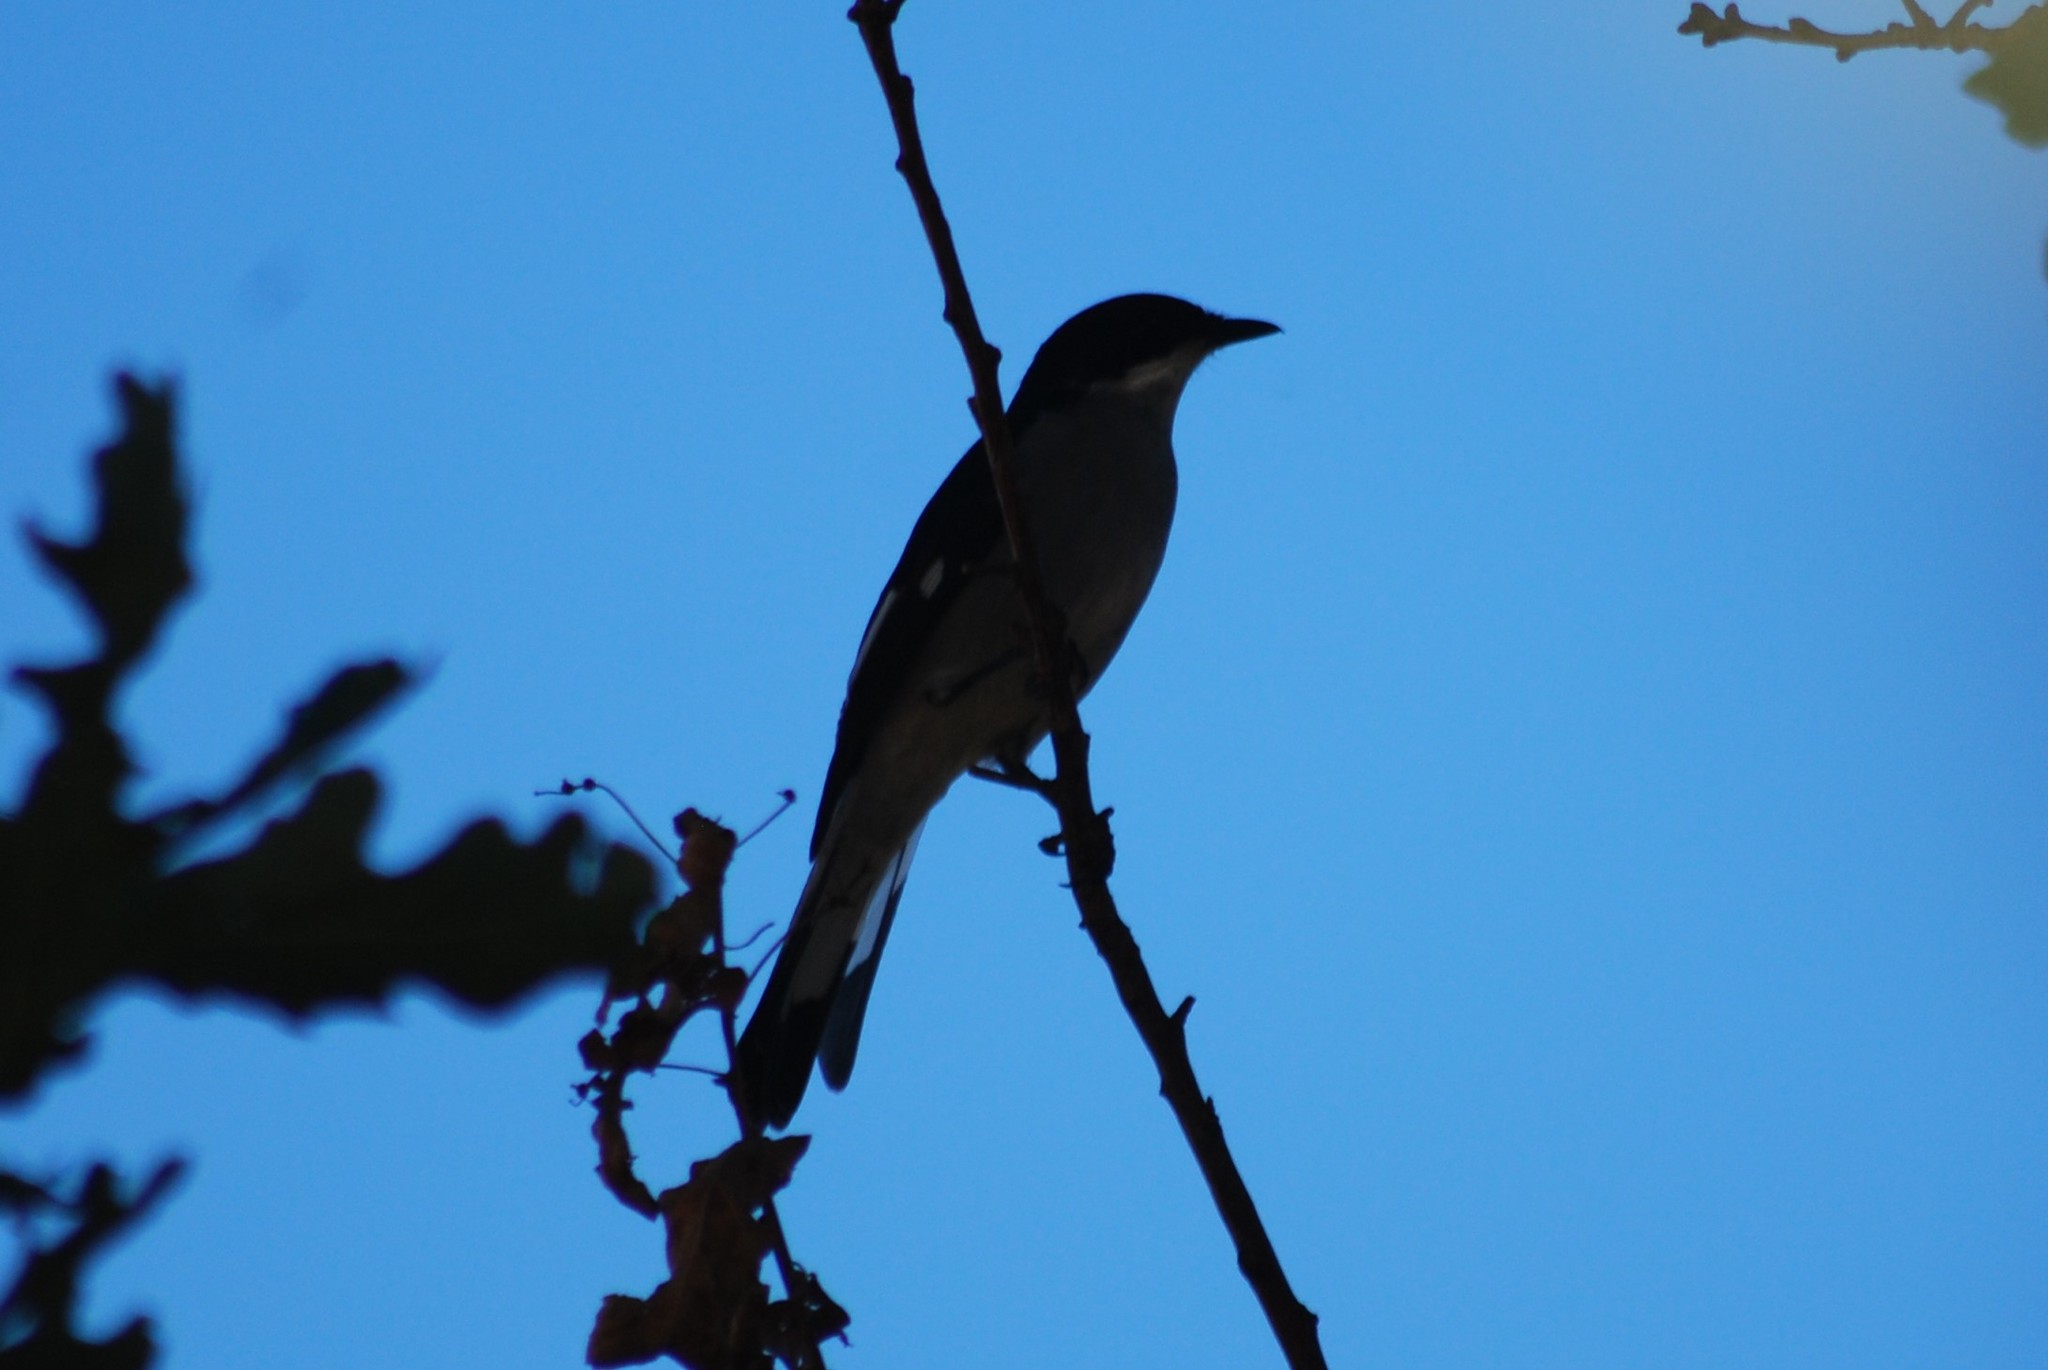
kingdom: Animalia
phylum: Chordata
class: Aves
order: Passeriformes
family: Muscicapidae
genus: Sigelus
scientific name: Sigelus silens
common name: Fiscal flycatcher
